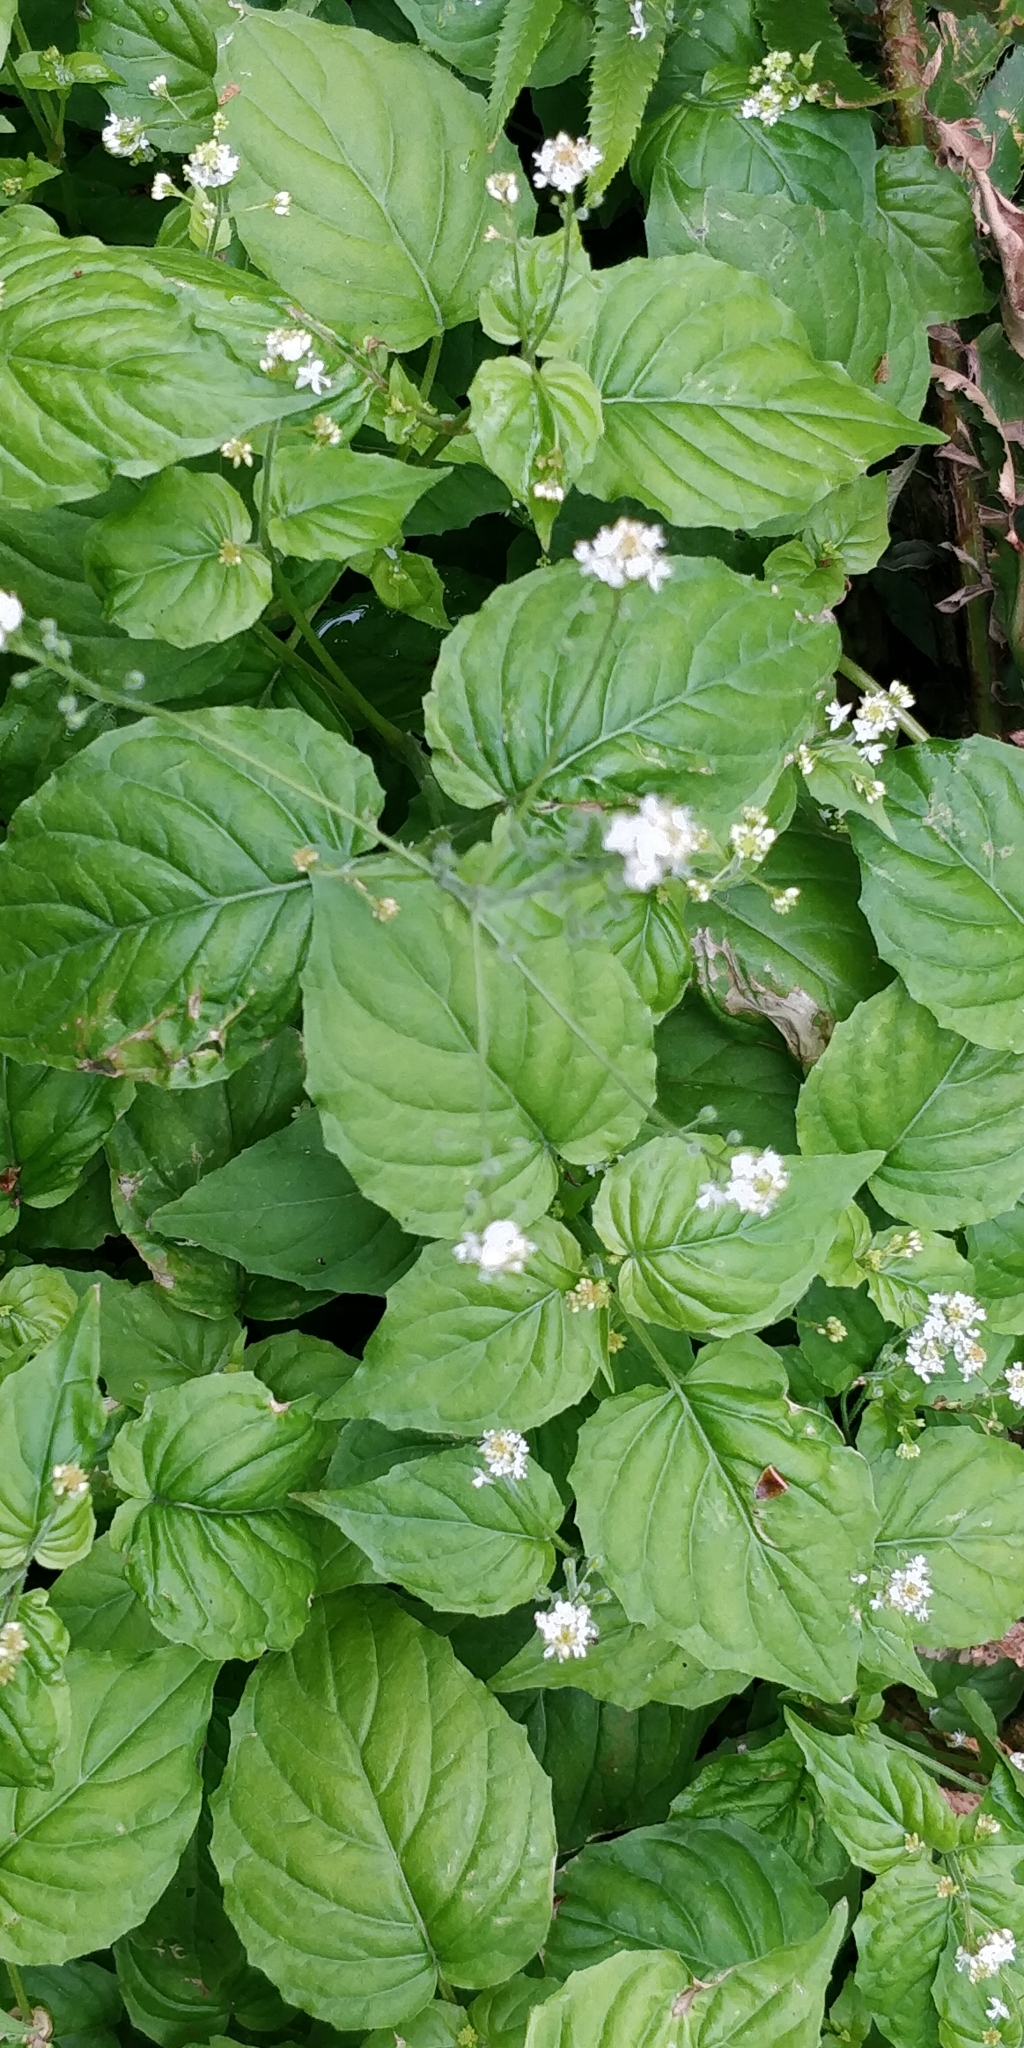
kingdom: Plantae
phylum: Tracheophyta
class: Magnoliopsida
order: Myrtales
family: Onagraceae
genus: Circaea
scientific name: Circaea alpina
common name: Alpine enchanter's-nightshade
